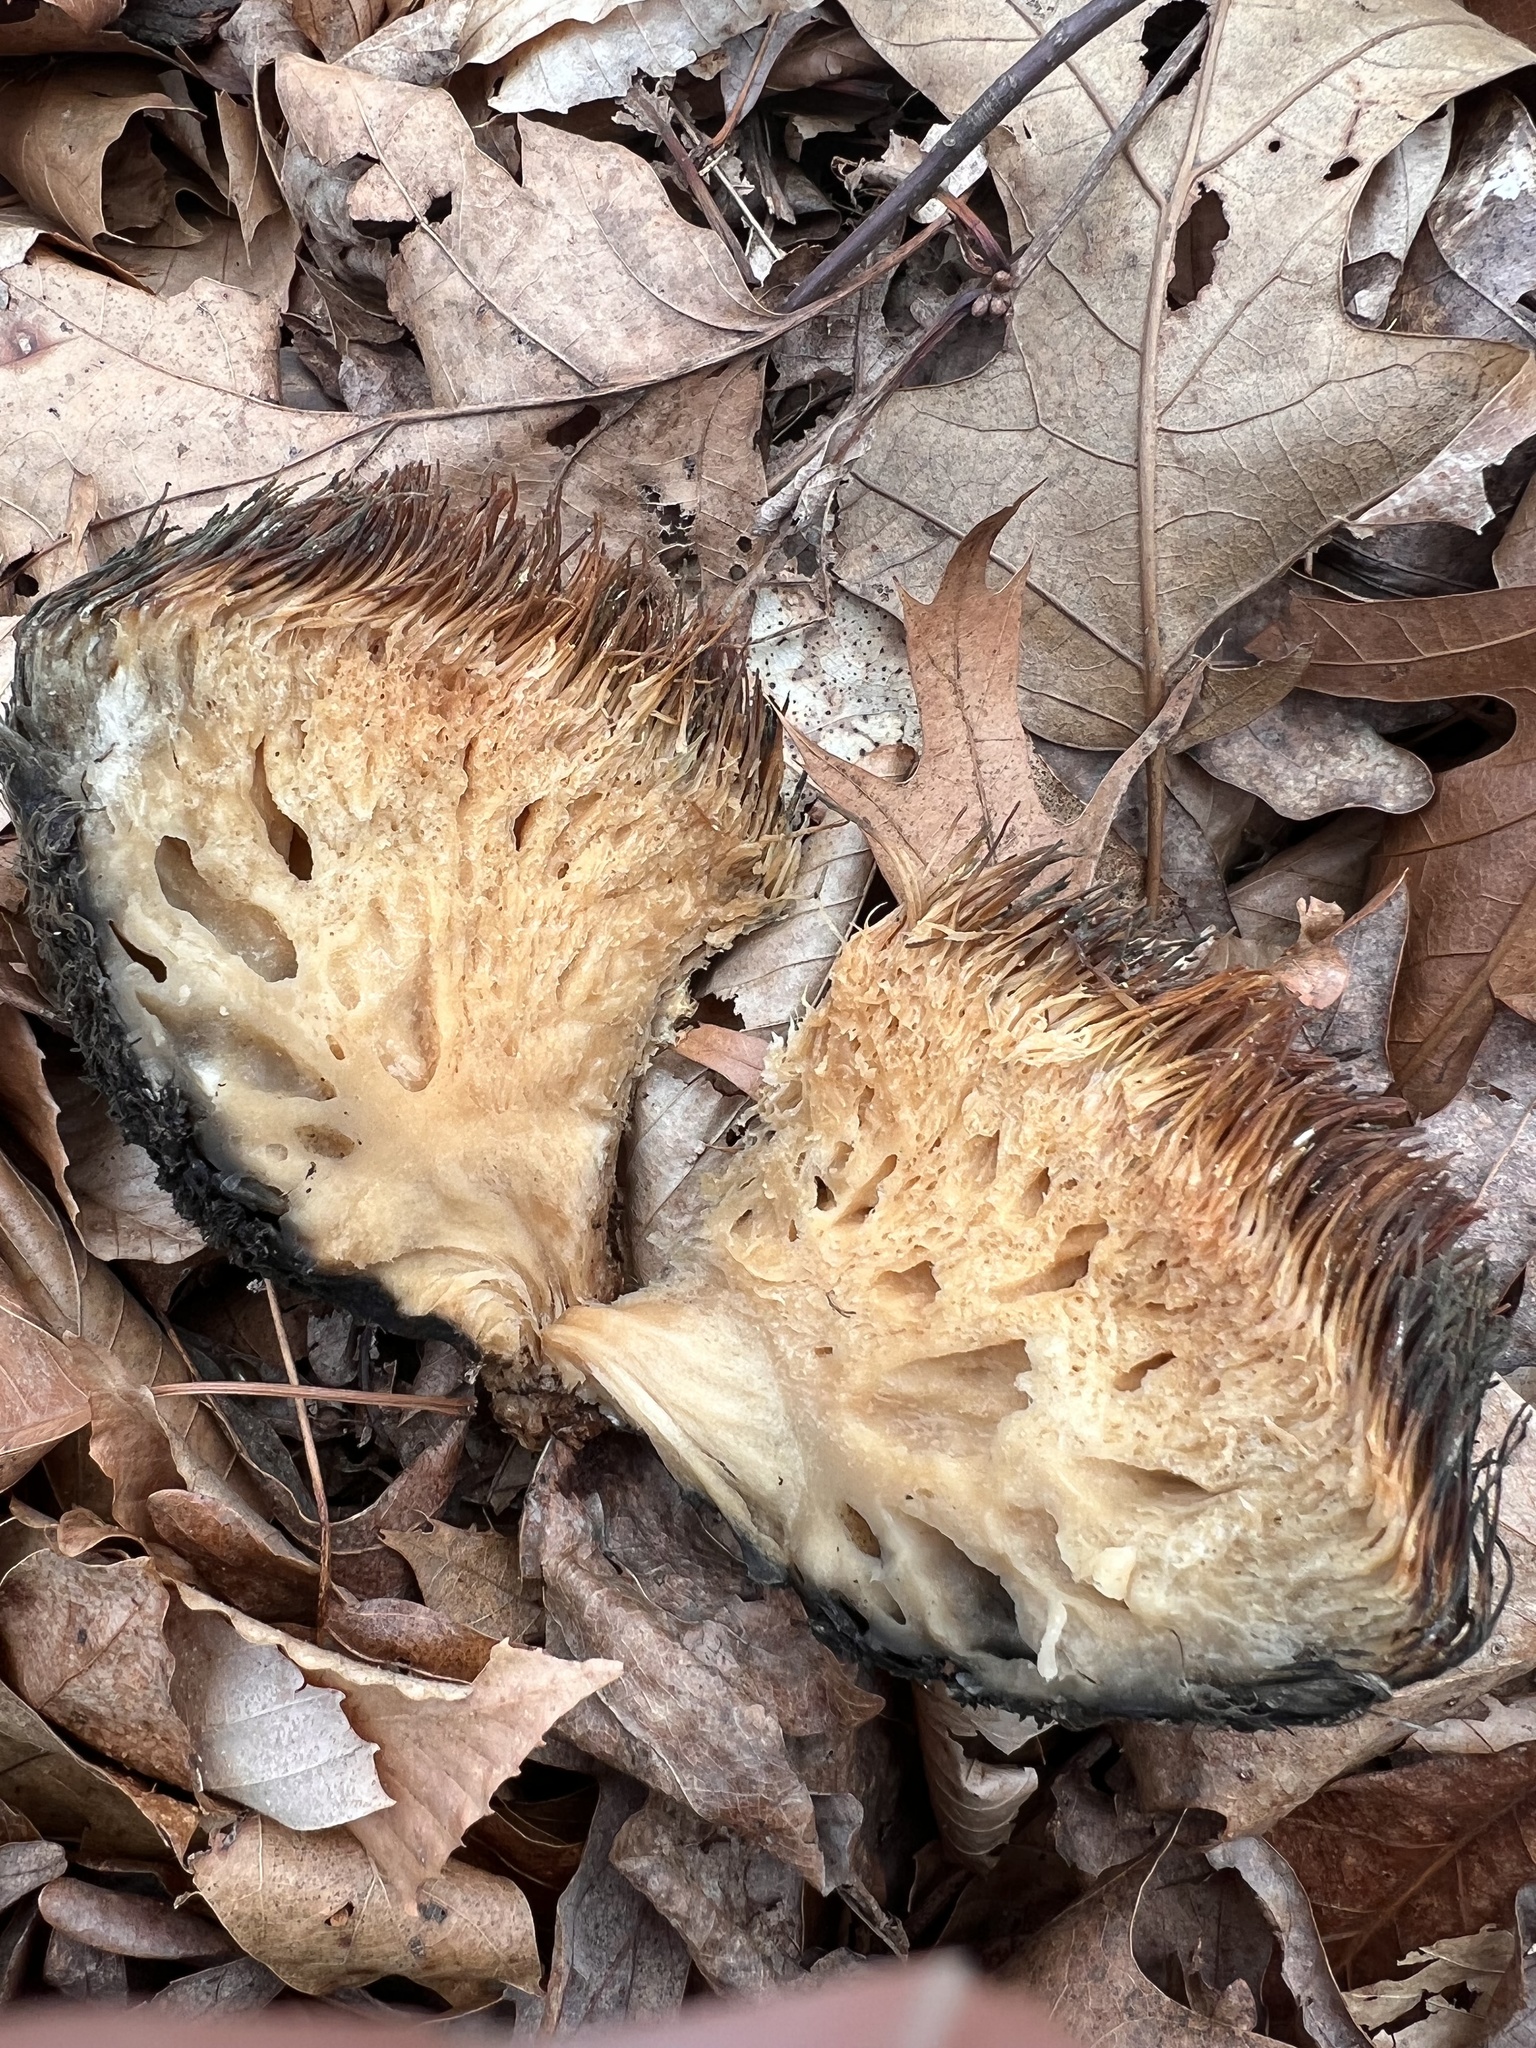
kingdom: Fungi
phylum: Basidiomycota
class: Agaricomycetes
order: Russulales
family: Hericiaceae
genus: Hericium
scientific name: Hericium erinaceus
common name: Bearded tooth
